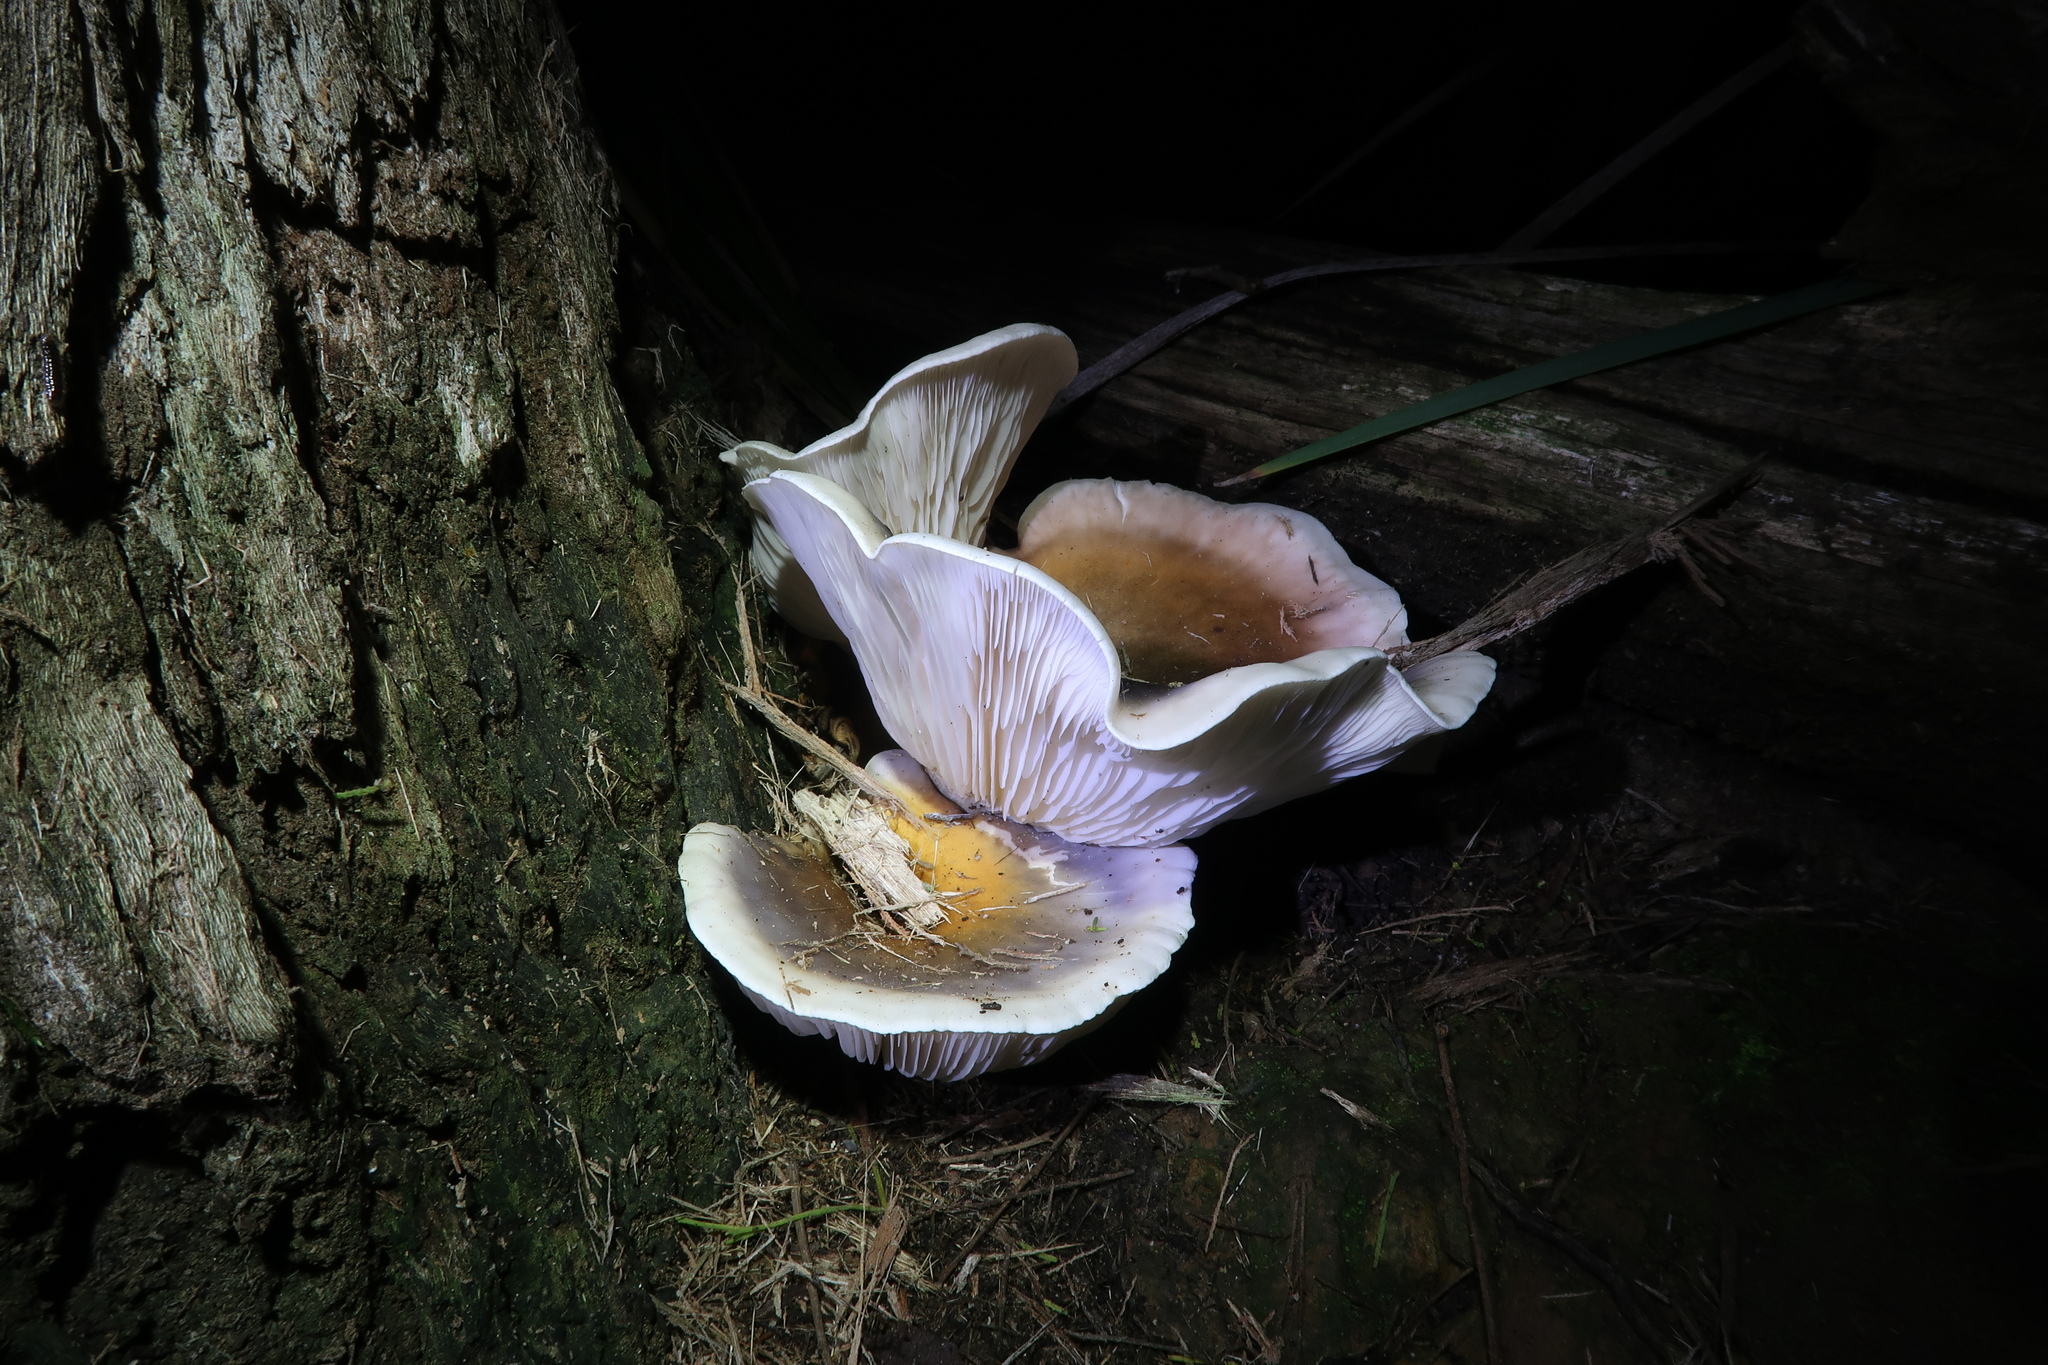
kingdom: Fungi
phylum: Basidiomycota
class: Agaricomycetes
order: Agaricales
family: Omphalotaceae
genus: Omphalotus
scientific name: Omphalotus nidiformis
